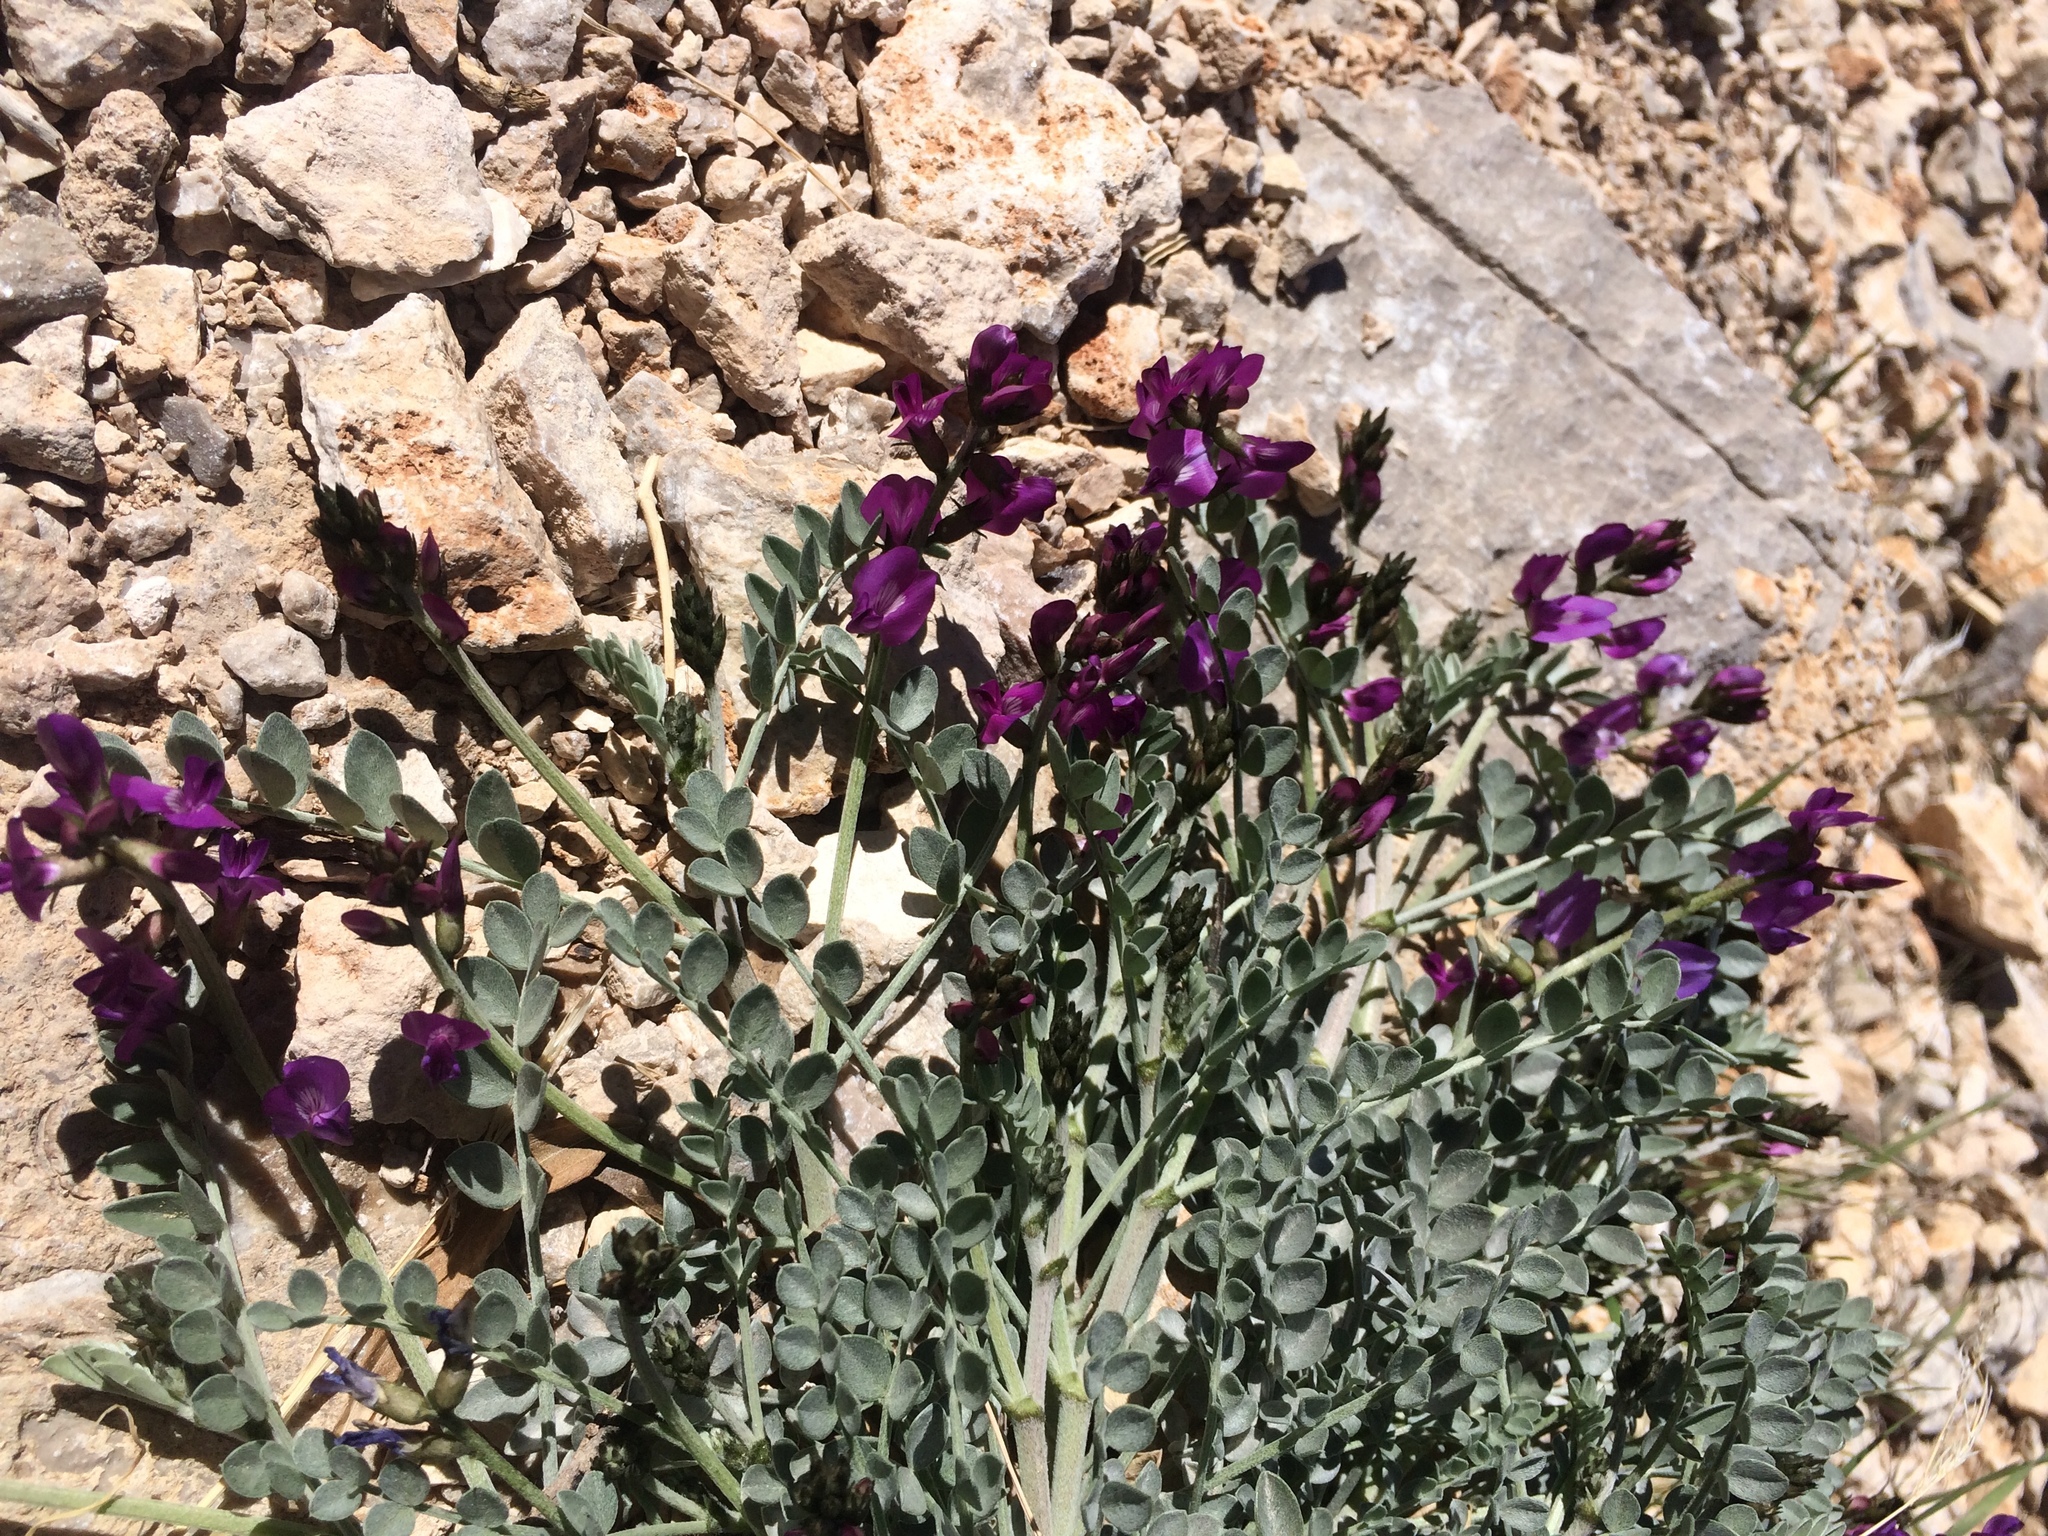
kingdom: Plantae
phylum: Tracheophyta
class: Magnoliopsida
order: Fabales
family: Fabaceae
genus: Astragalus
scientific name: Astragalus mohavensis
